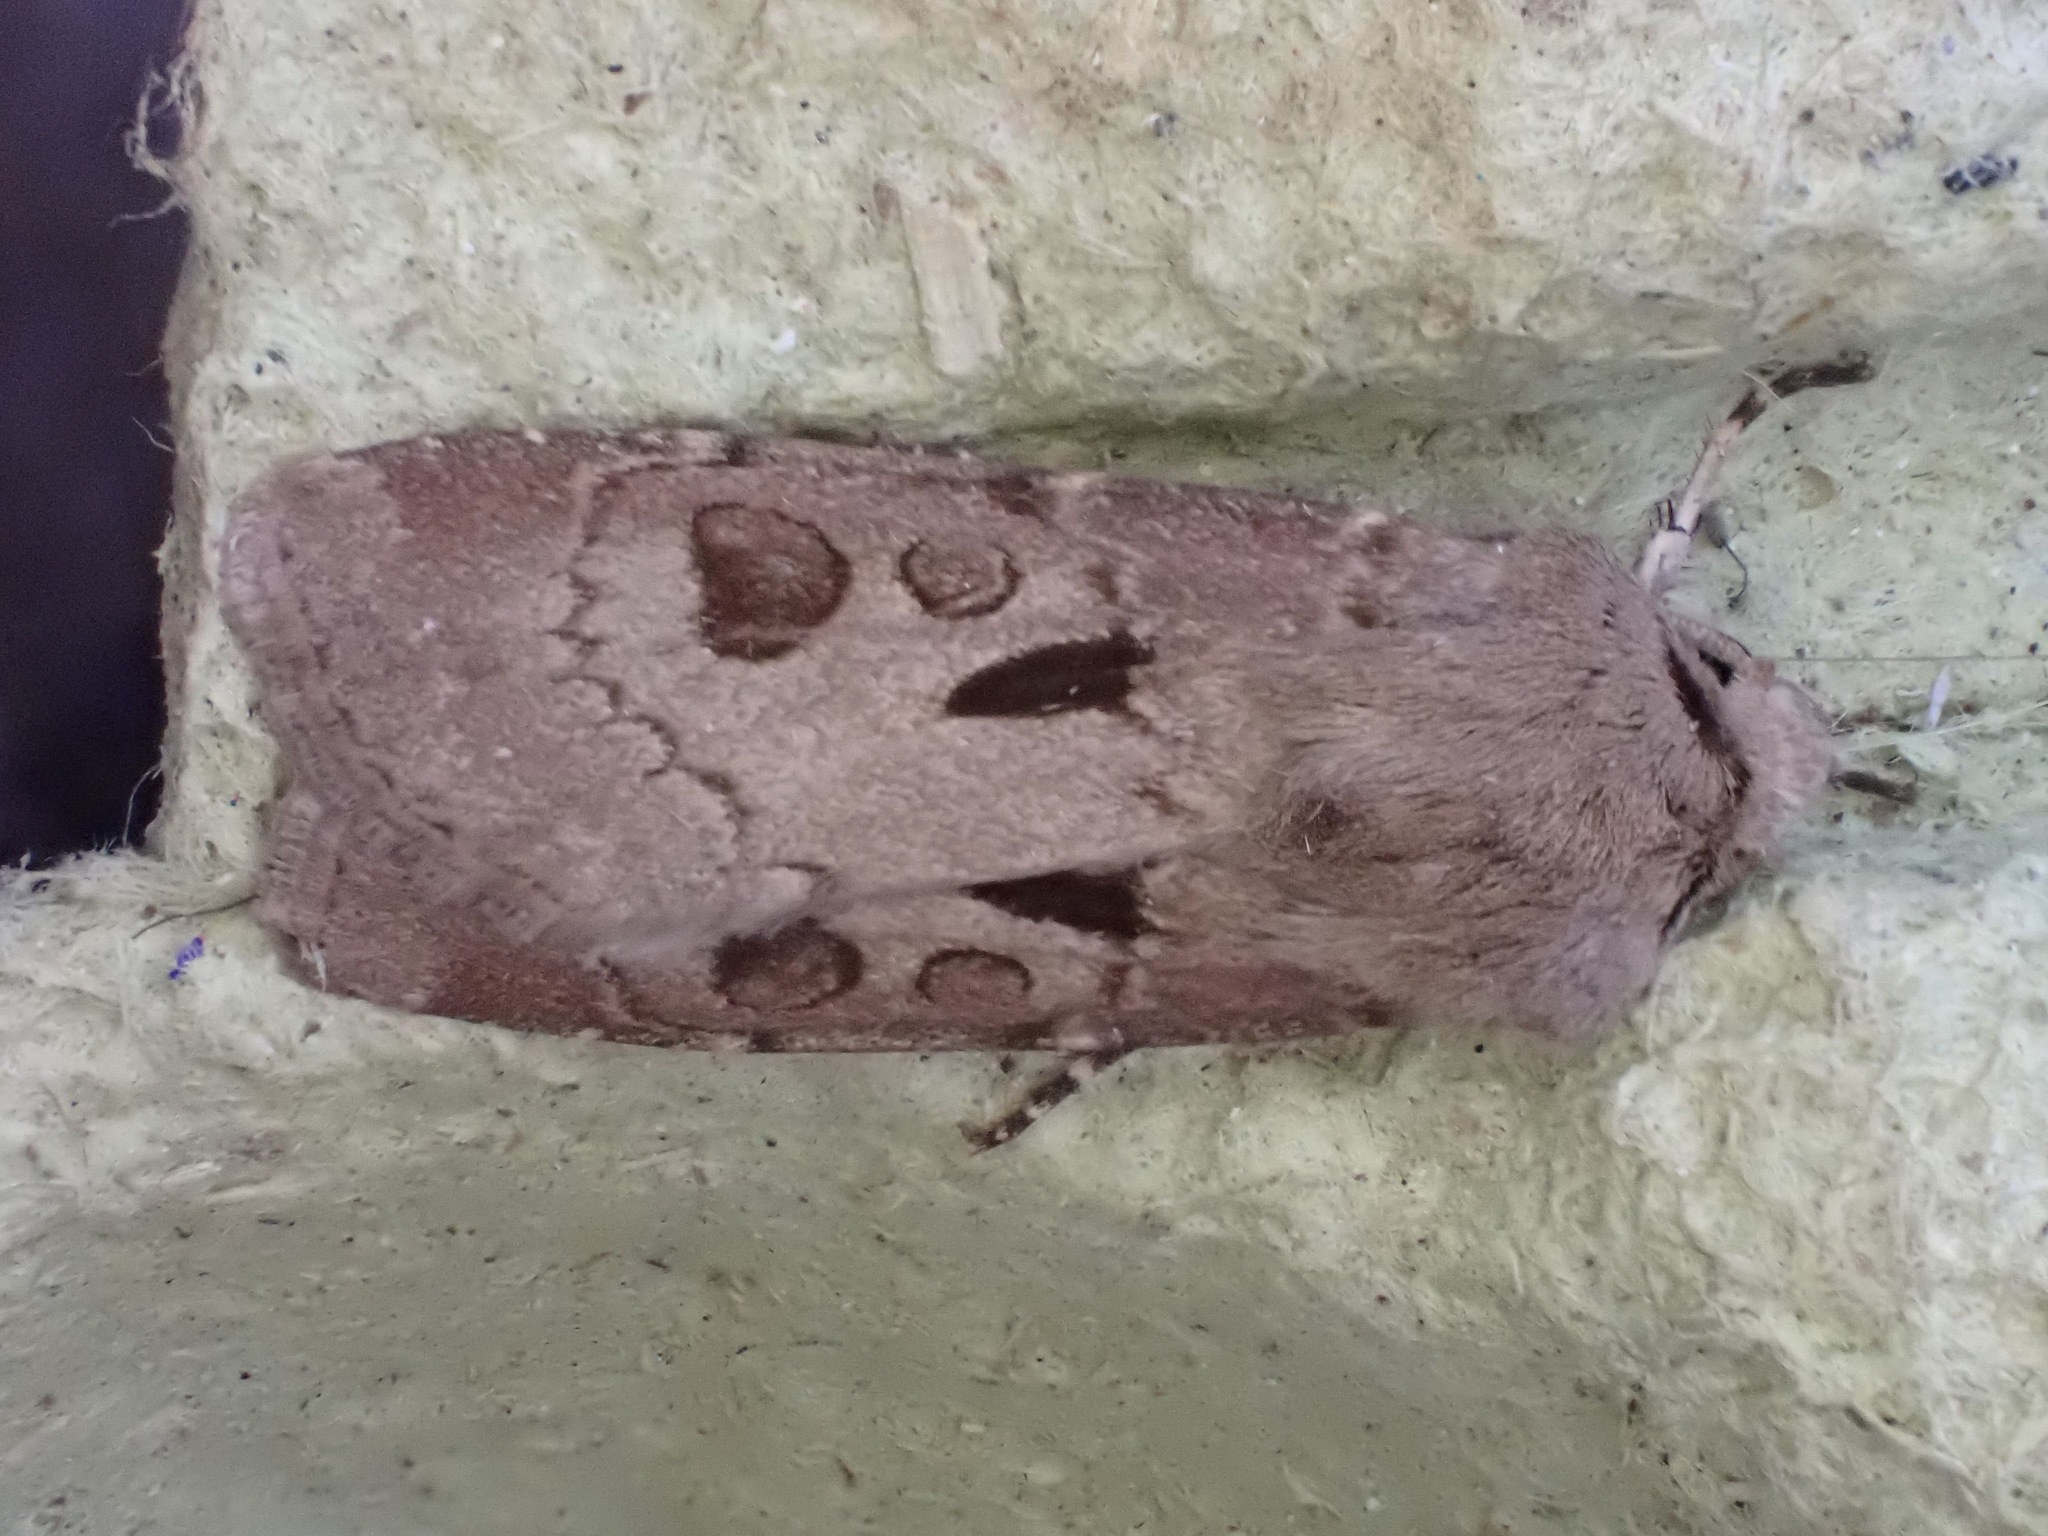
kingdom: Animalia
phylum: Arthropoda
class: Insecta
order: Lepidoptera
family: Noctuidae
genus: Agrotis
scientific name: Agrotis exclamationis
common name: Heart and dart
